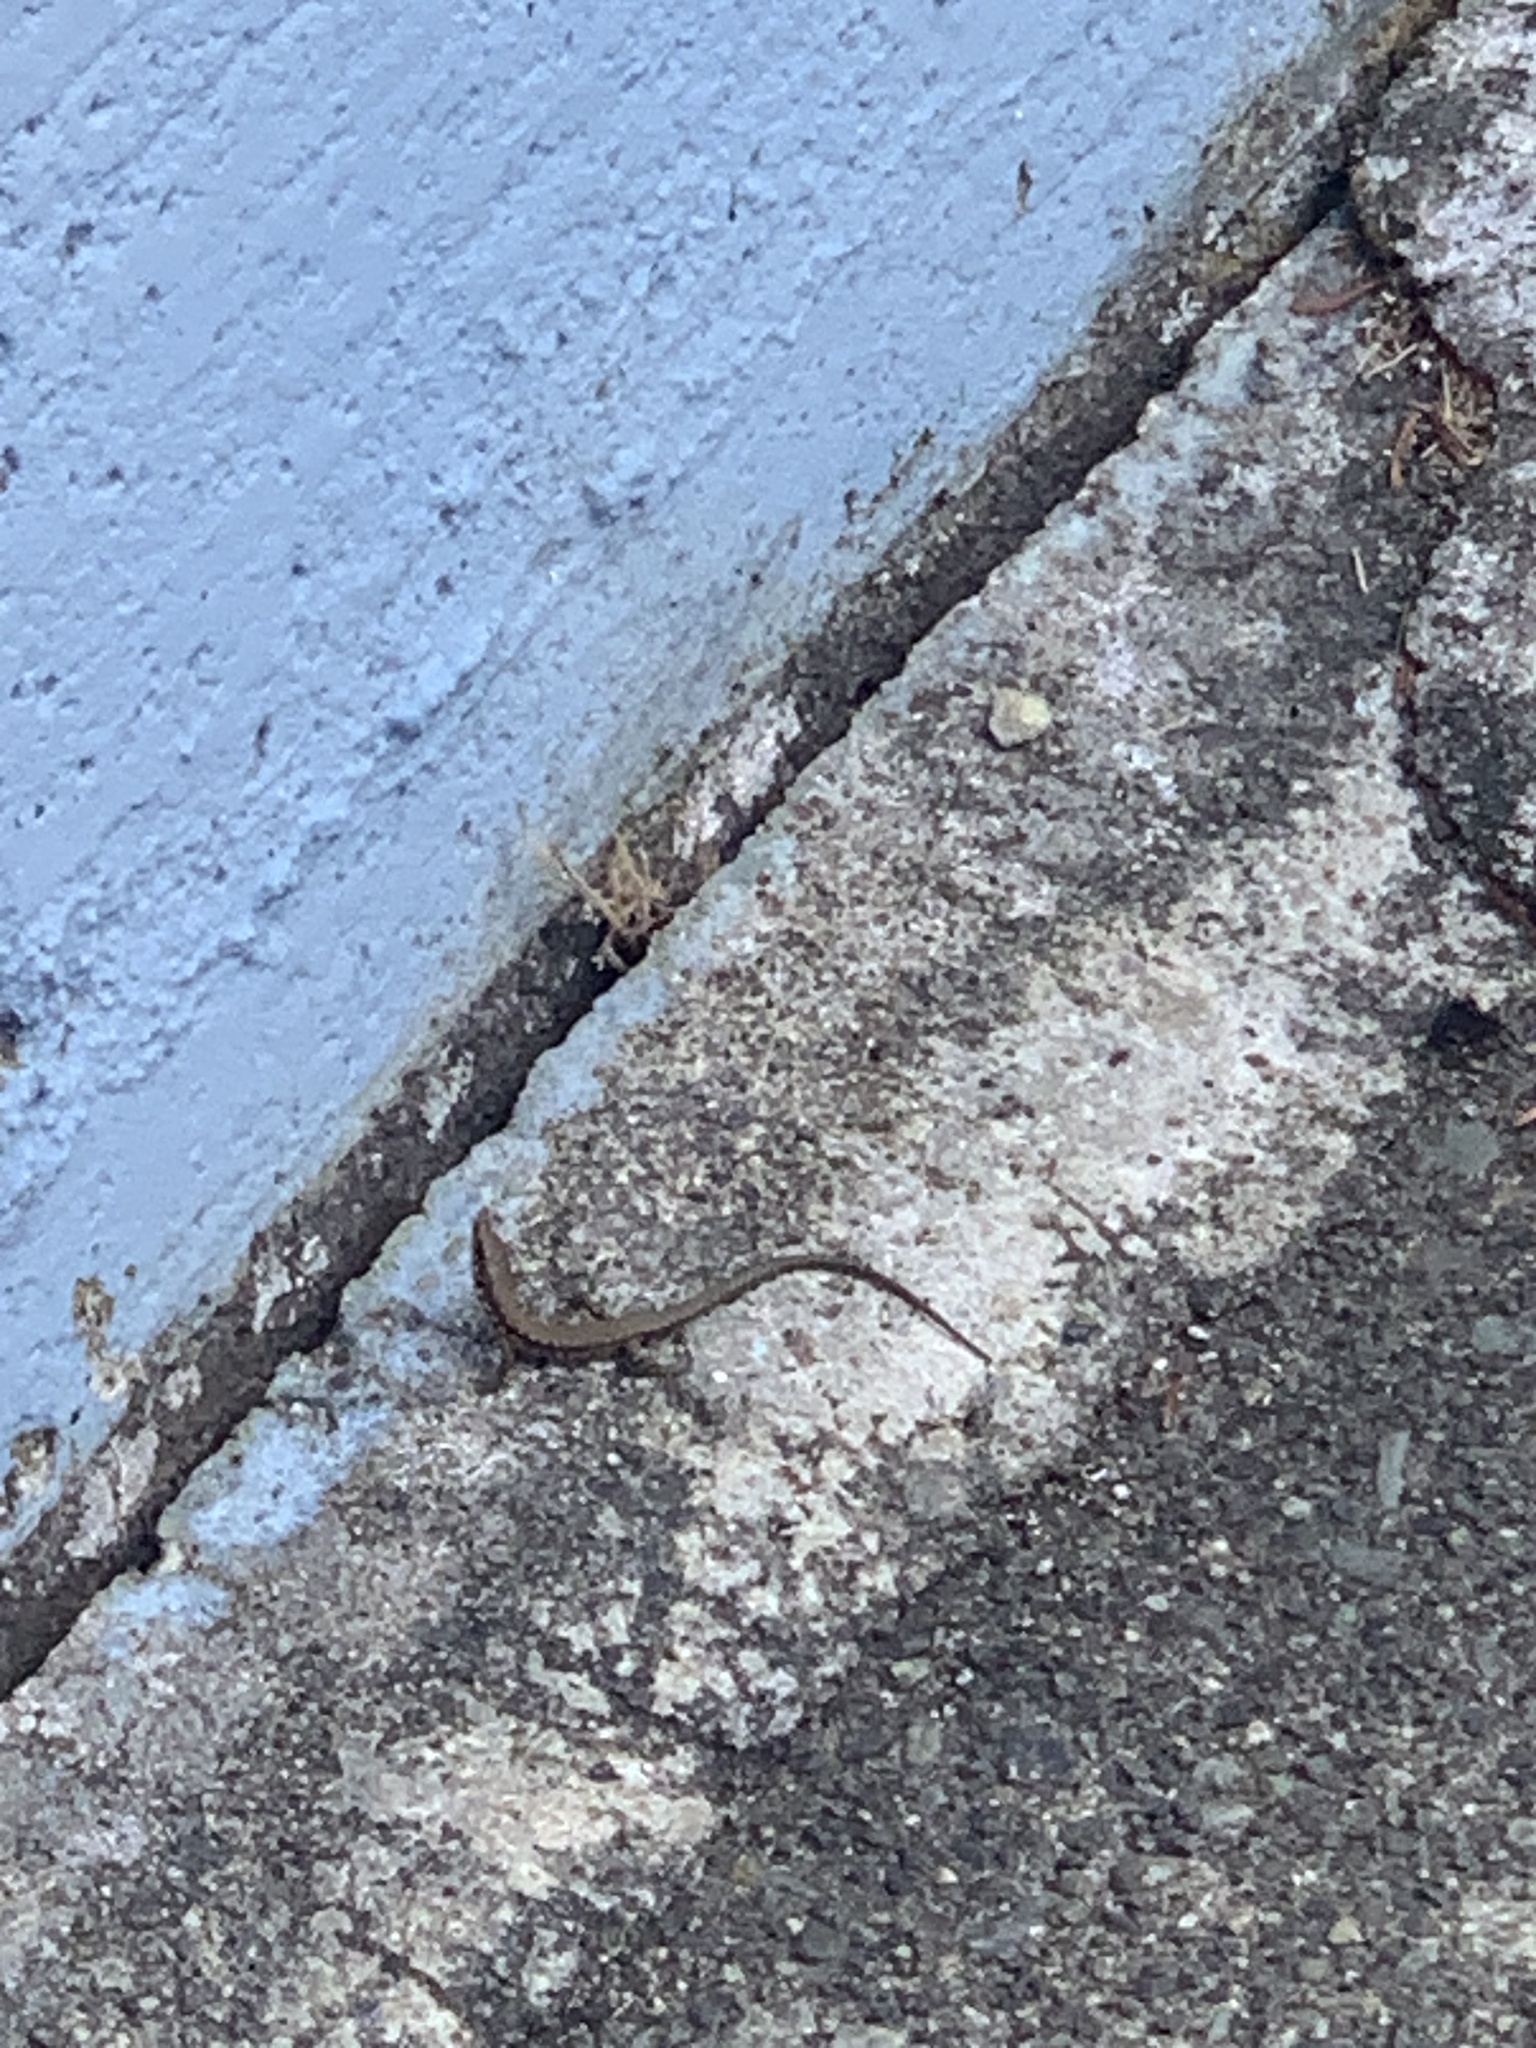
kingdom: Animalia
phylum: Chordata
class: Squamata
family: Lacertidae
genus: Podarcis
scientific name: Podarcis muralis
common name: Common wall lizard
